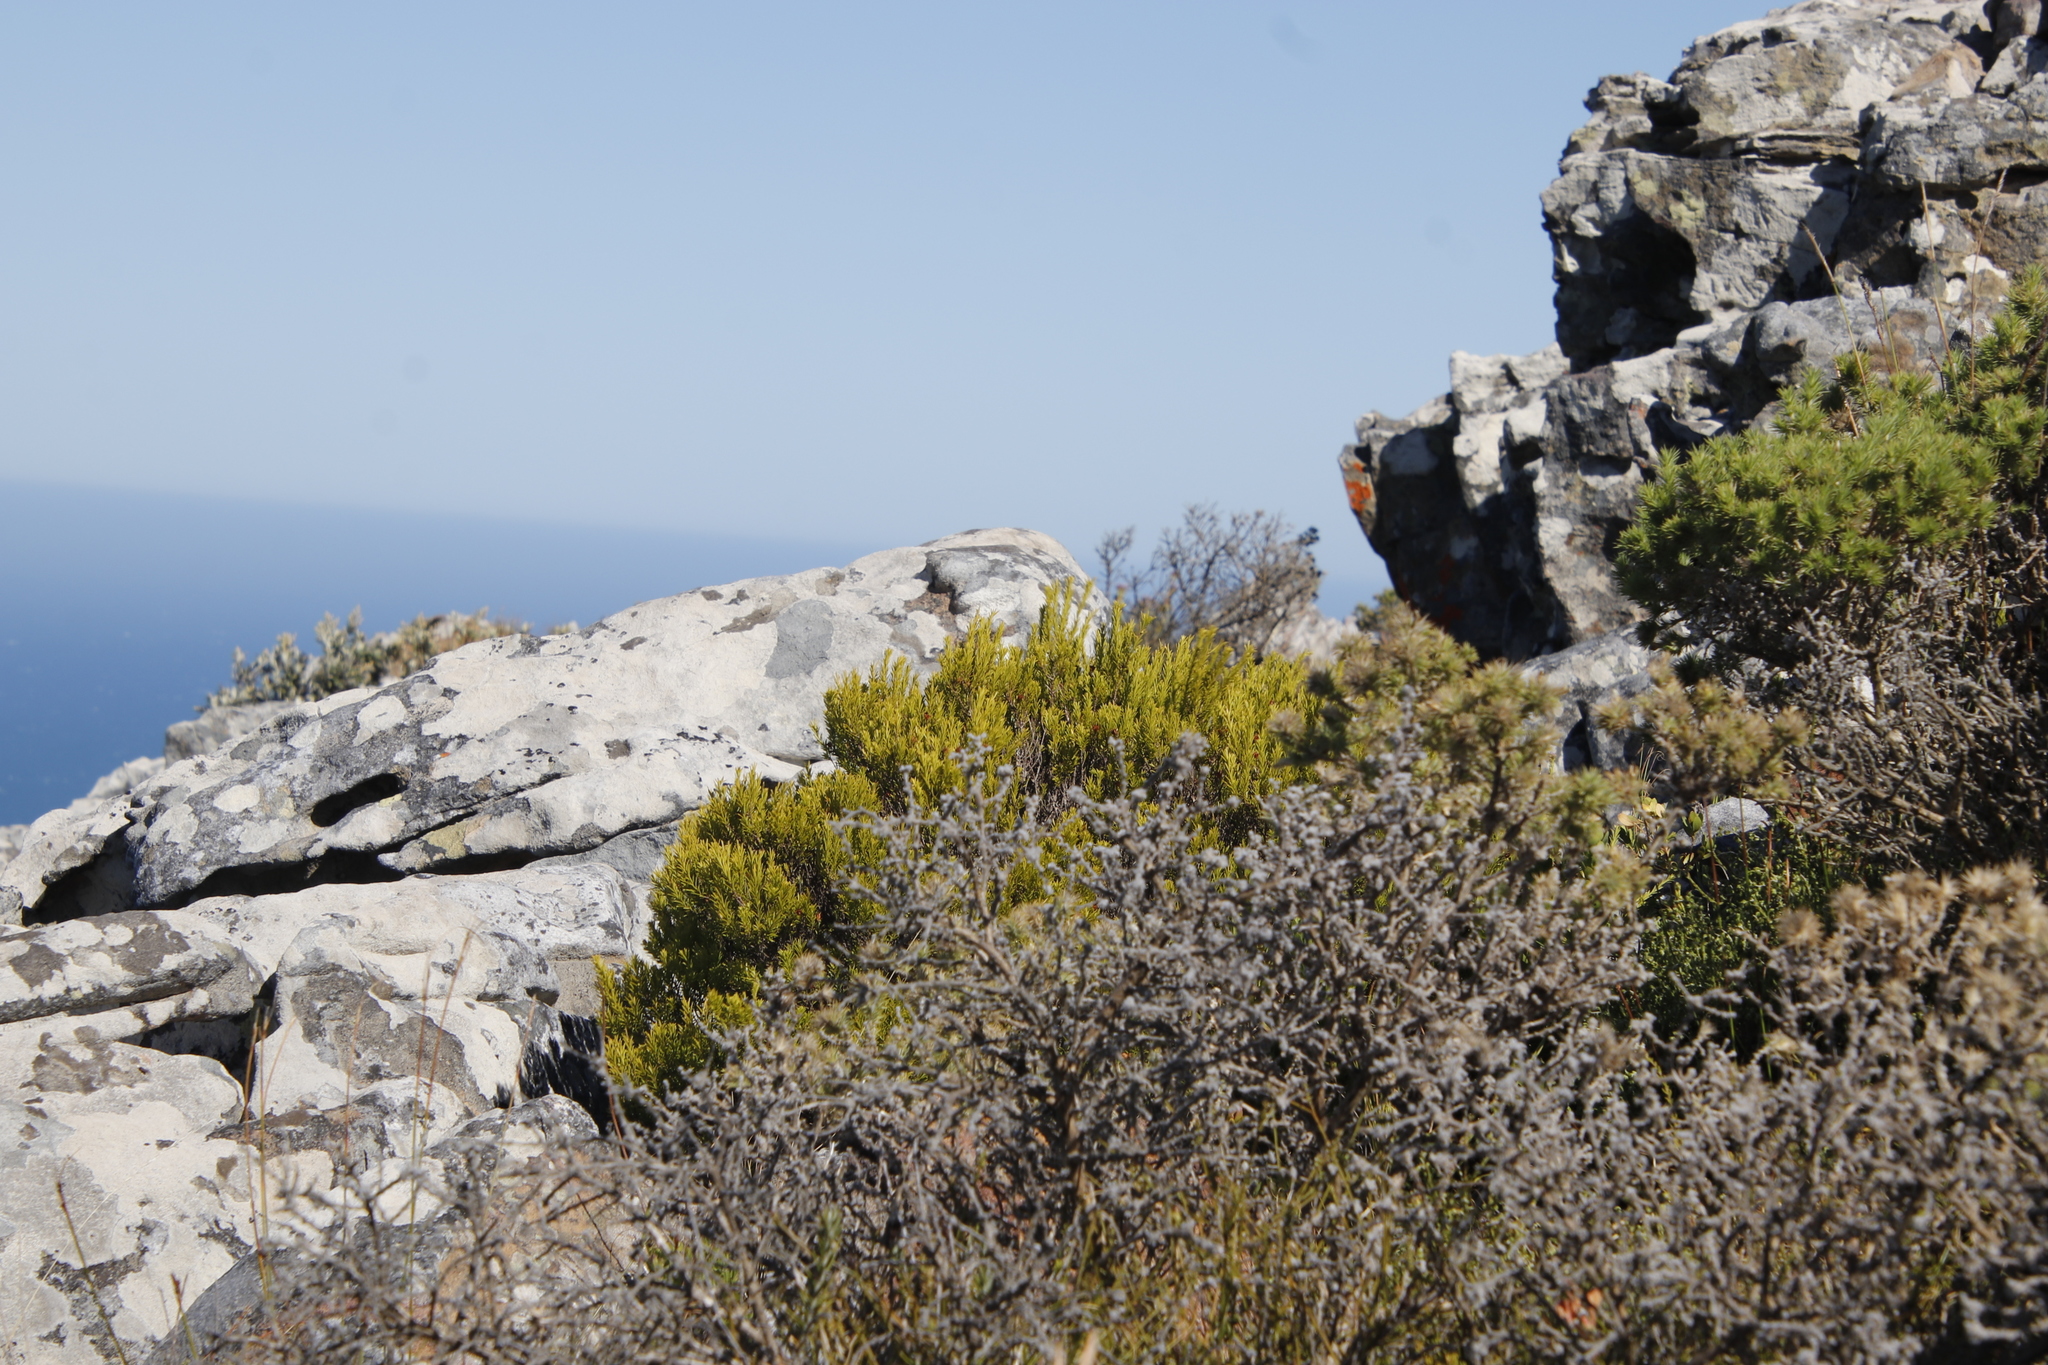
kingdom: Plantae
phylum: Tracheophyta
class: Magnoliopsida
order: Sapindales
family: Rutaceae
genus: Coleonema
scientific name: Coleonema album
